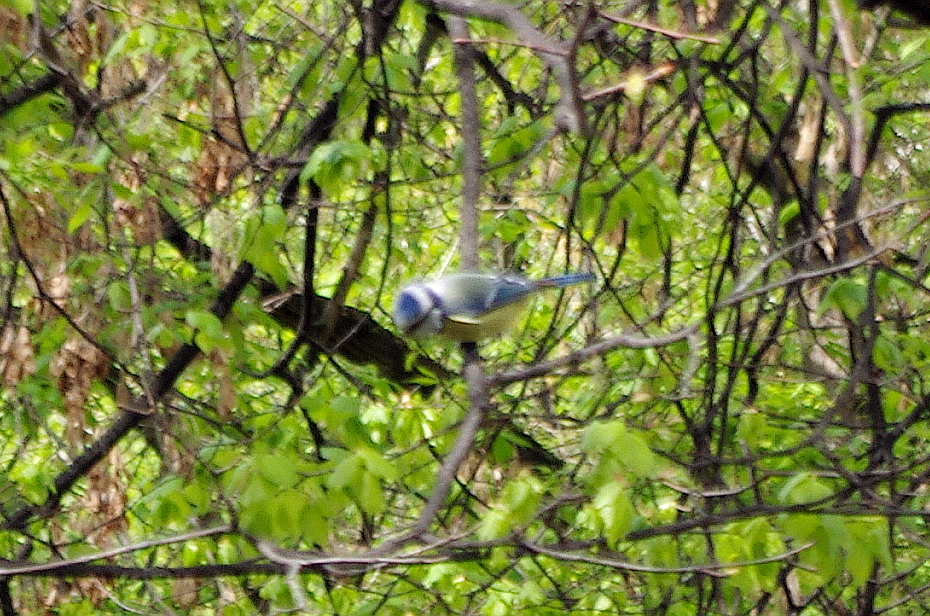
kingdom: Animalia
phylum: Chordata
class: Aves
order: Passeriformes
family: Paridae
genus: Cyanistes
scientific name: Cyanistes caeruleus
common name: Eurasian blue tit
